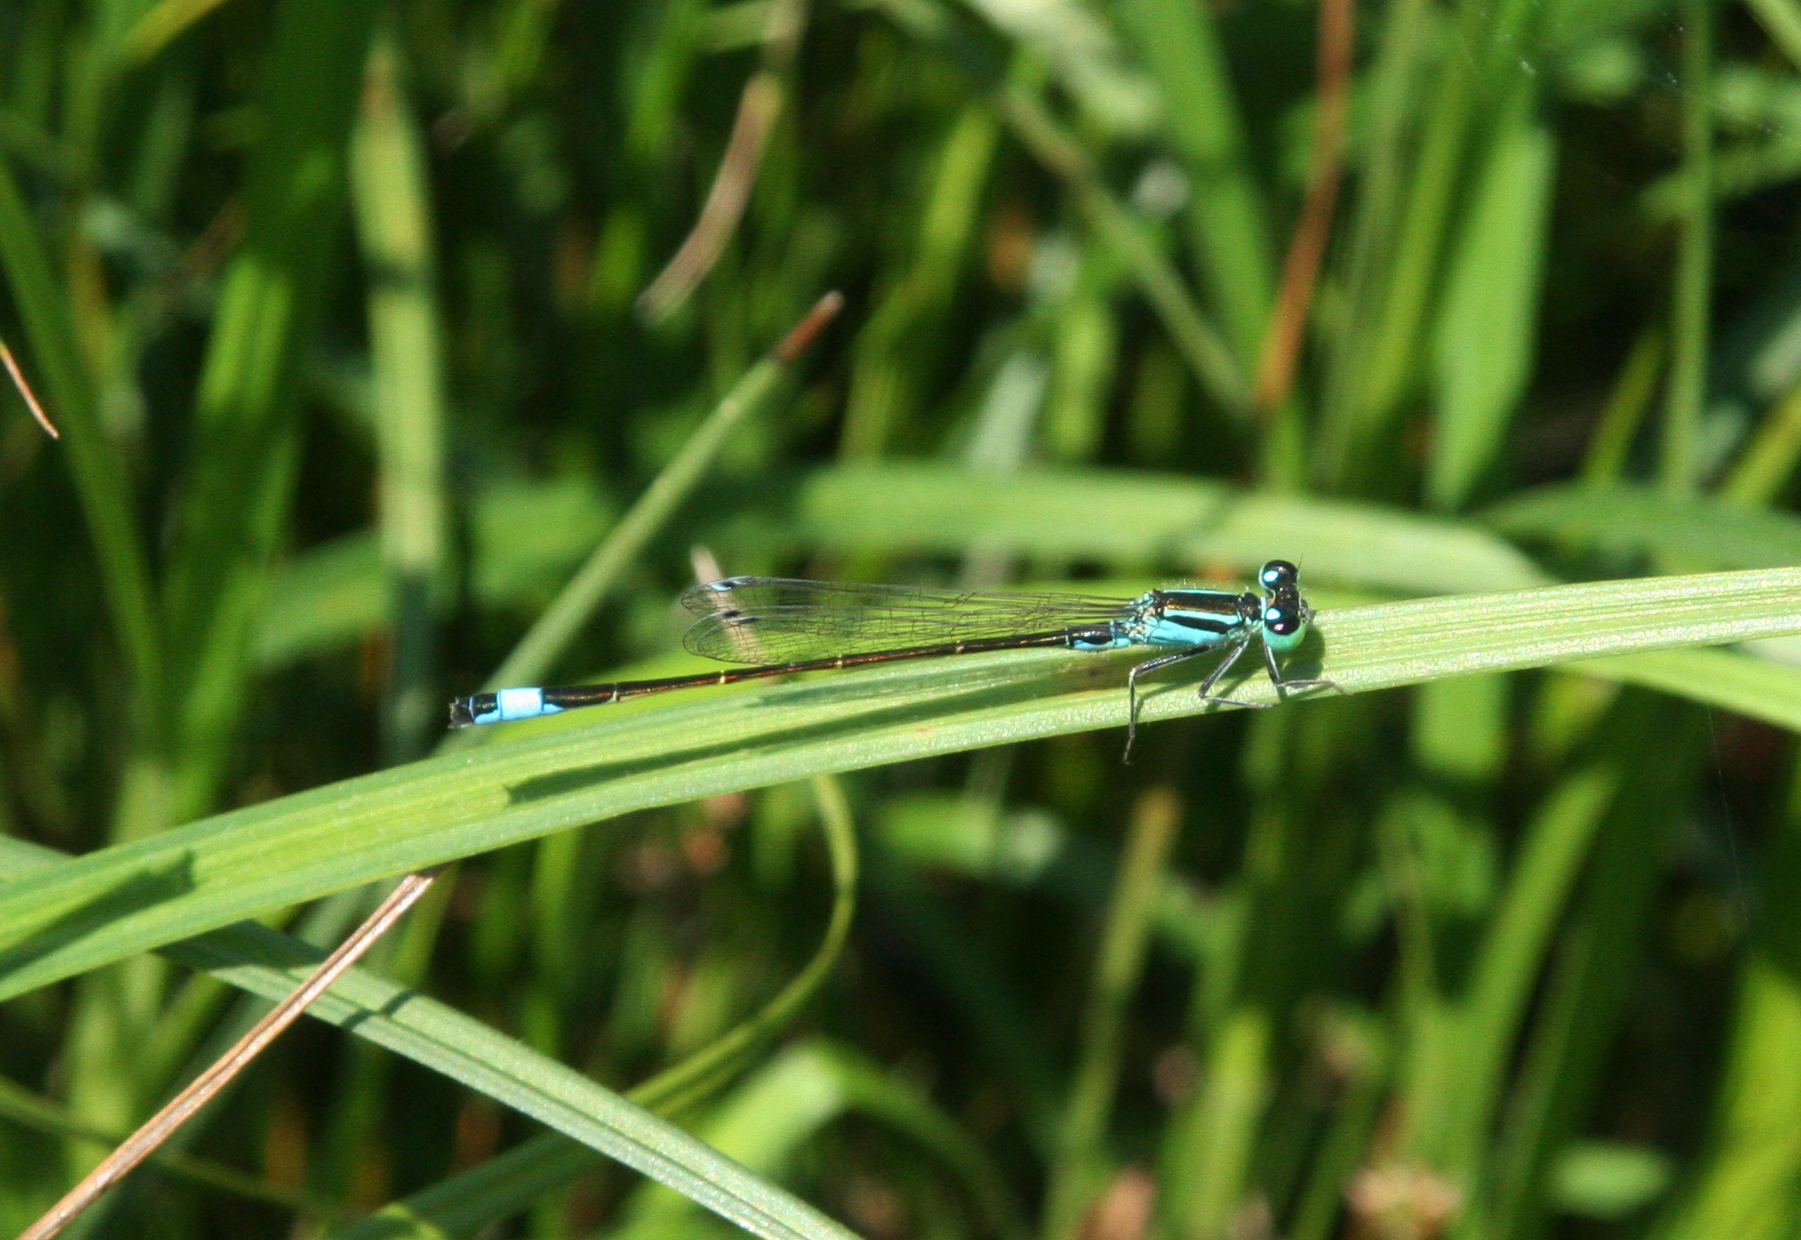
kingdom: Animalia
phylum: Arthropoda
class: Insecta
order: Odonata
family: Coenagrionidae
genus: Ischnura
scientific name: Ischnura elegans
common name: Blue-tailed damselfly
